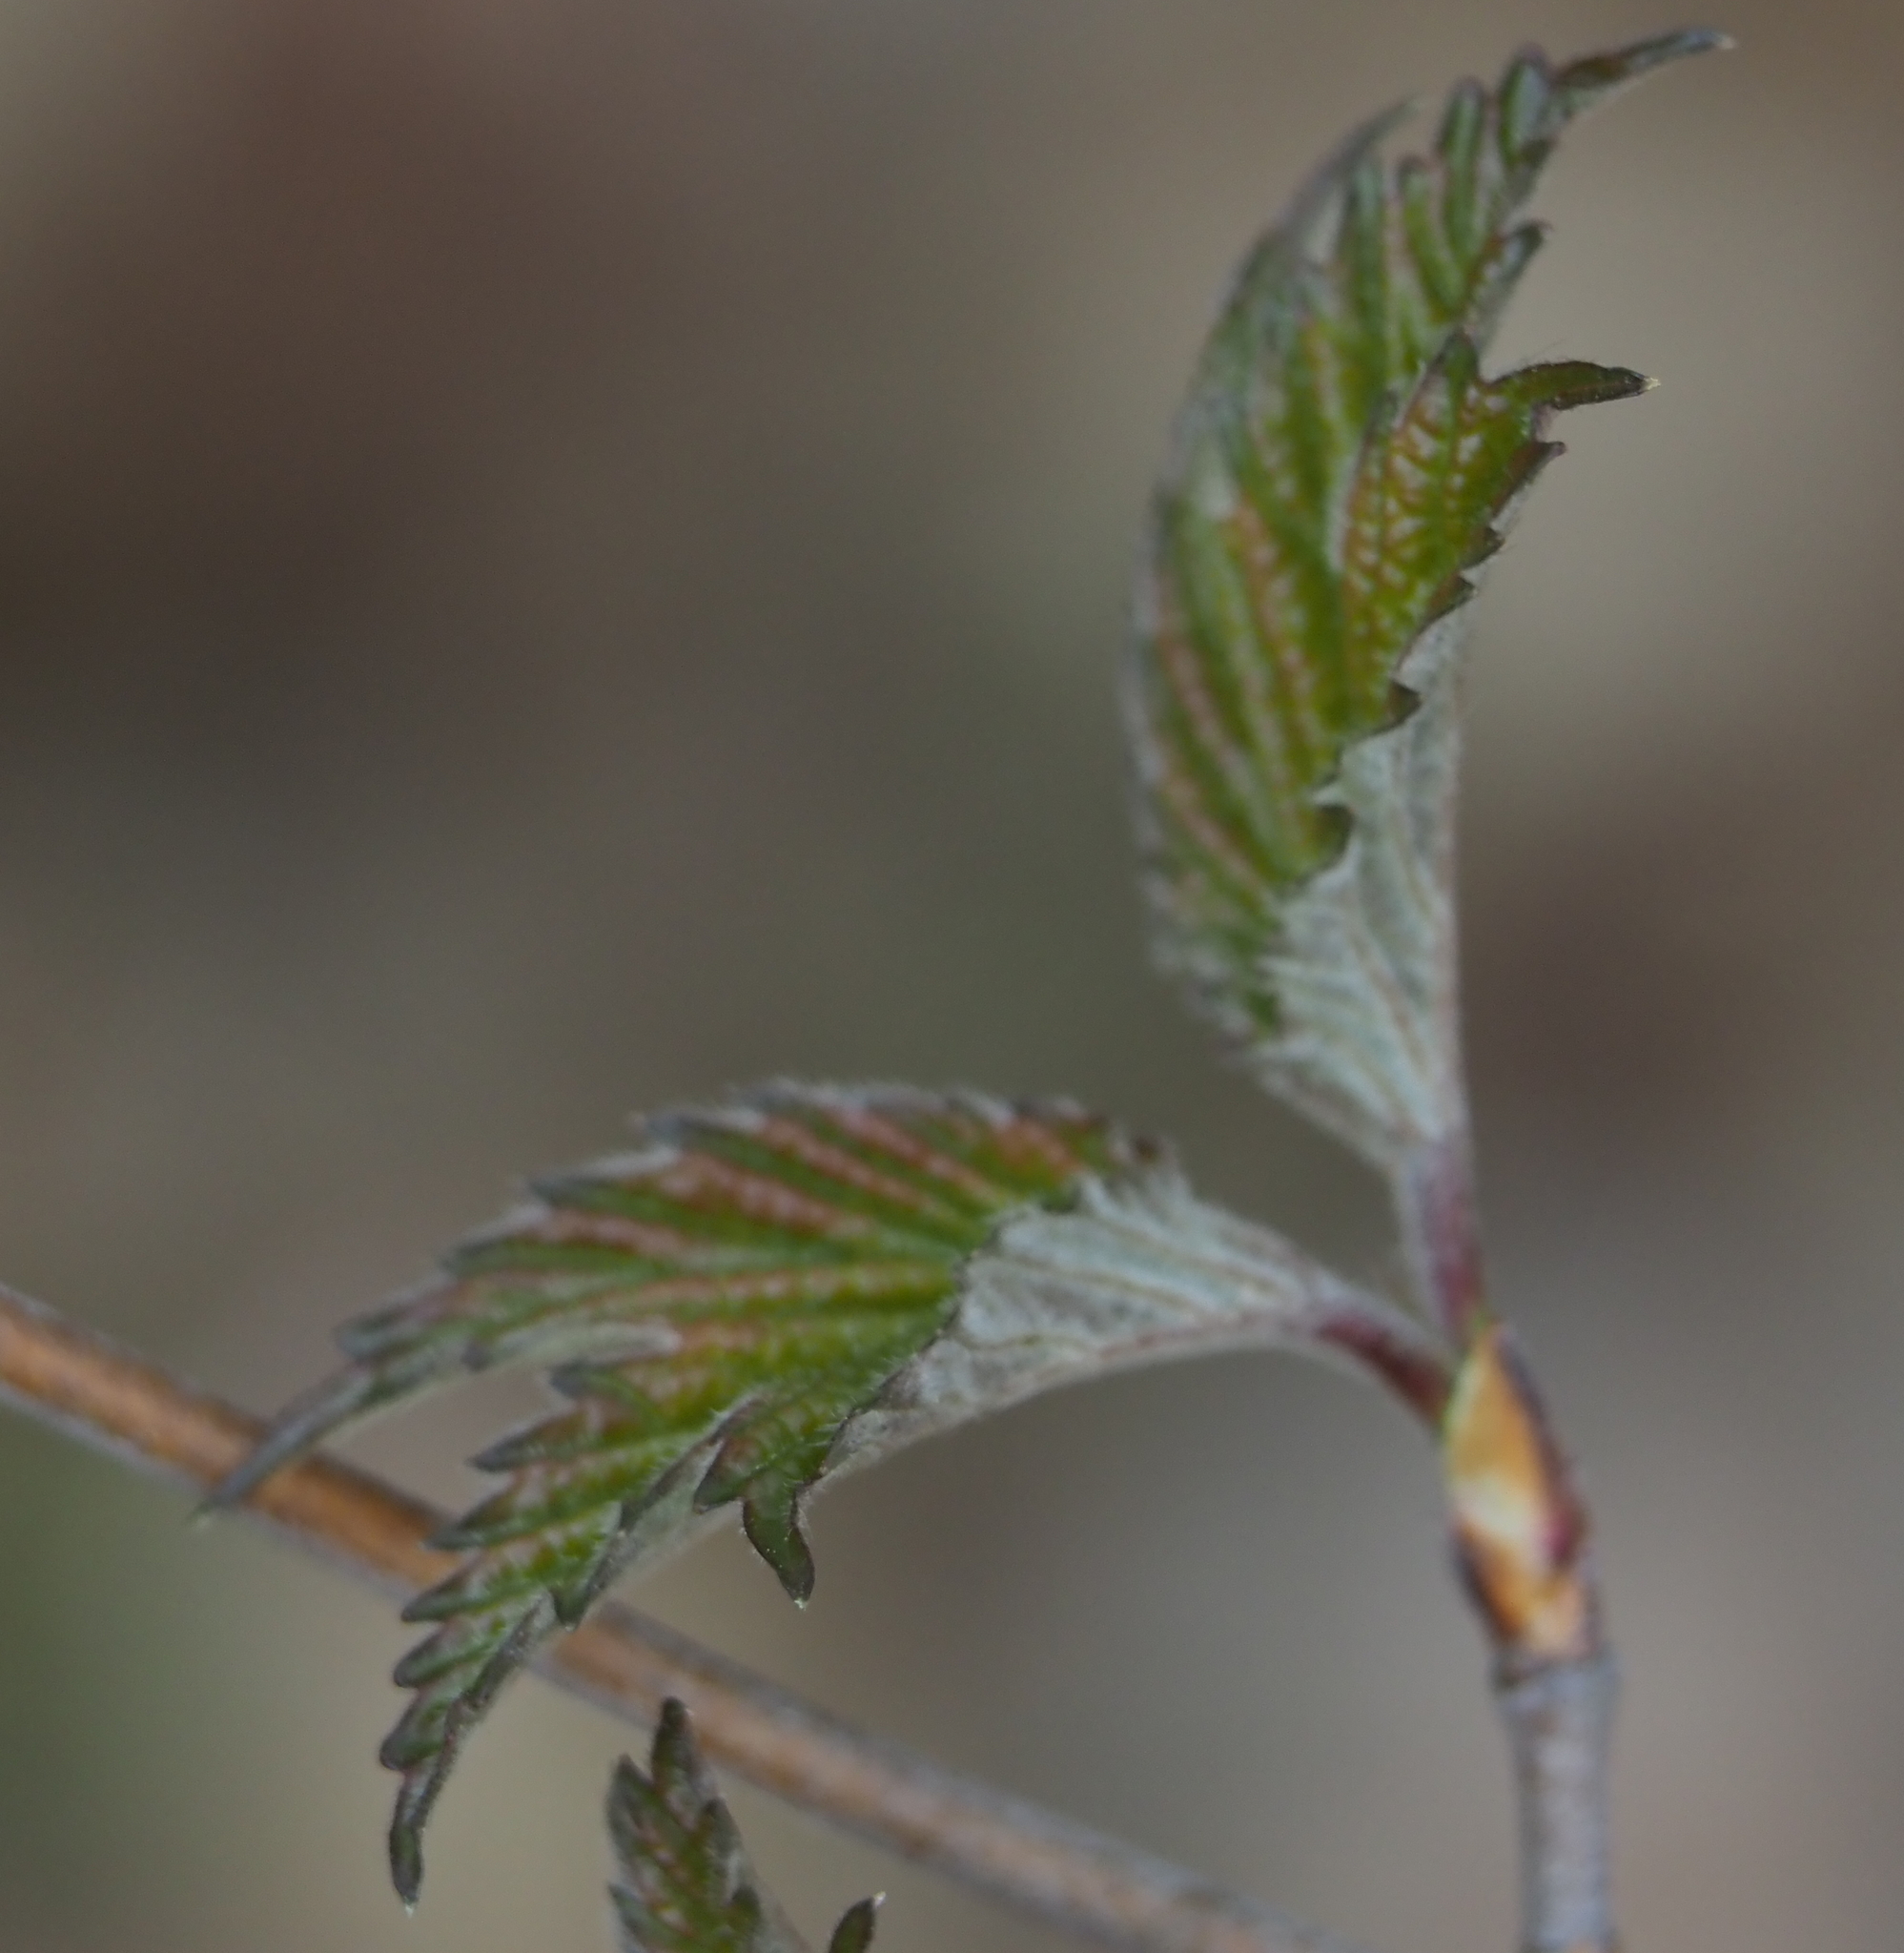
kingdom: Plantae
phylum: Tracheophyta
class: Magnoliopsida
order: Dipsacales
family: Viburnaceae
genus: Viburnum
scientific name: Viburnum acerifolium
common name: Dockmackie
